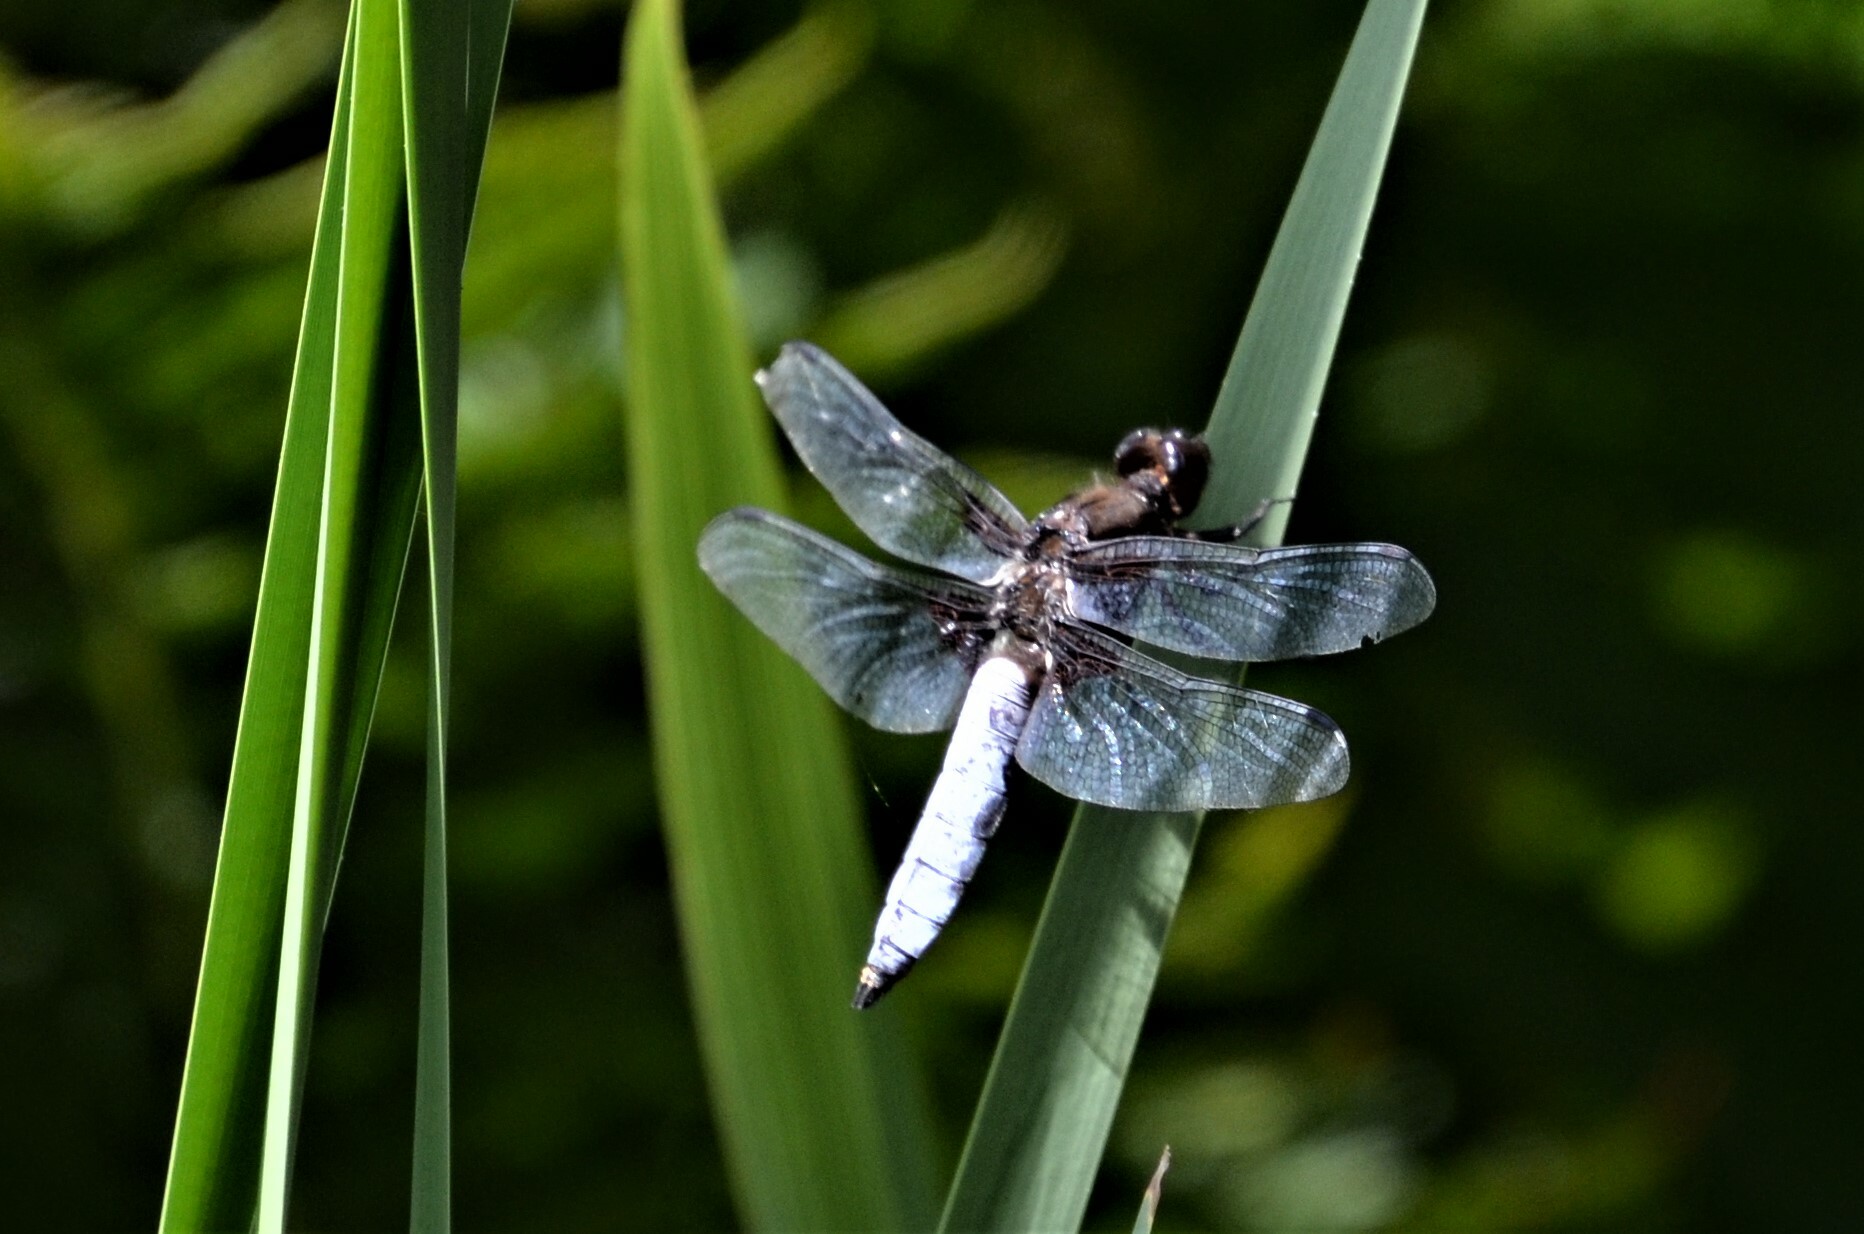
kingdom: Animalia
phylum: Arthropoda
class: Insecta
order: Odonata
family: Libellulidae
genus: Libellula
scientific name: Libellula depressa
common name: Broad-bodied chaser
